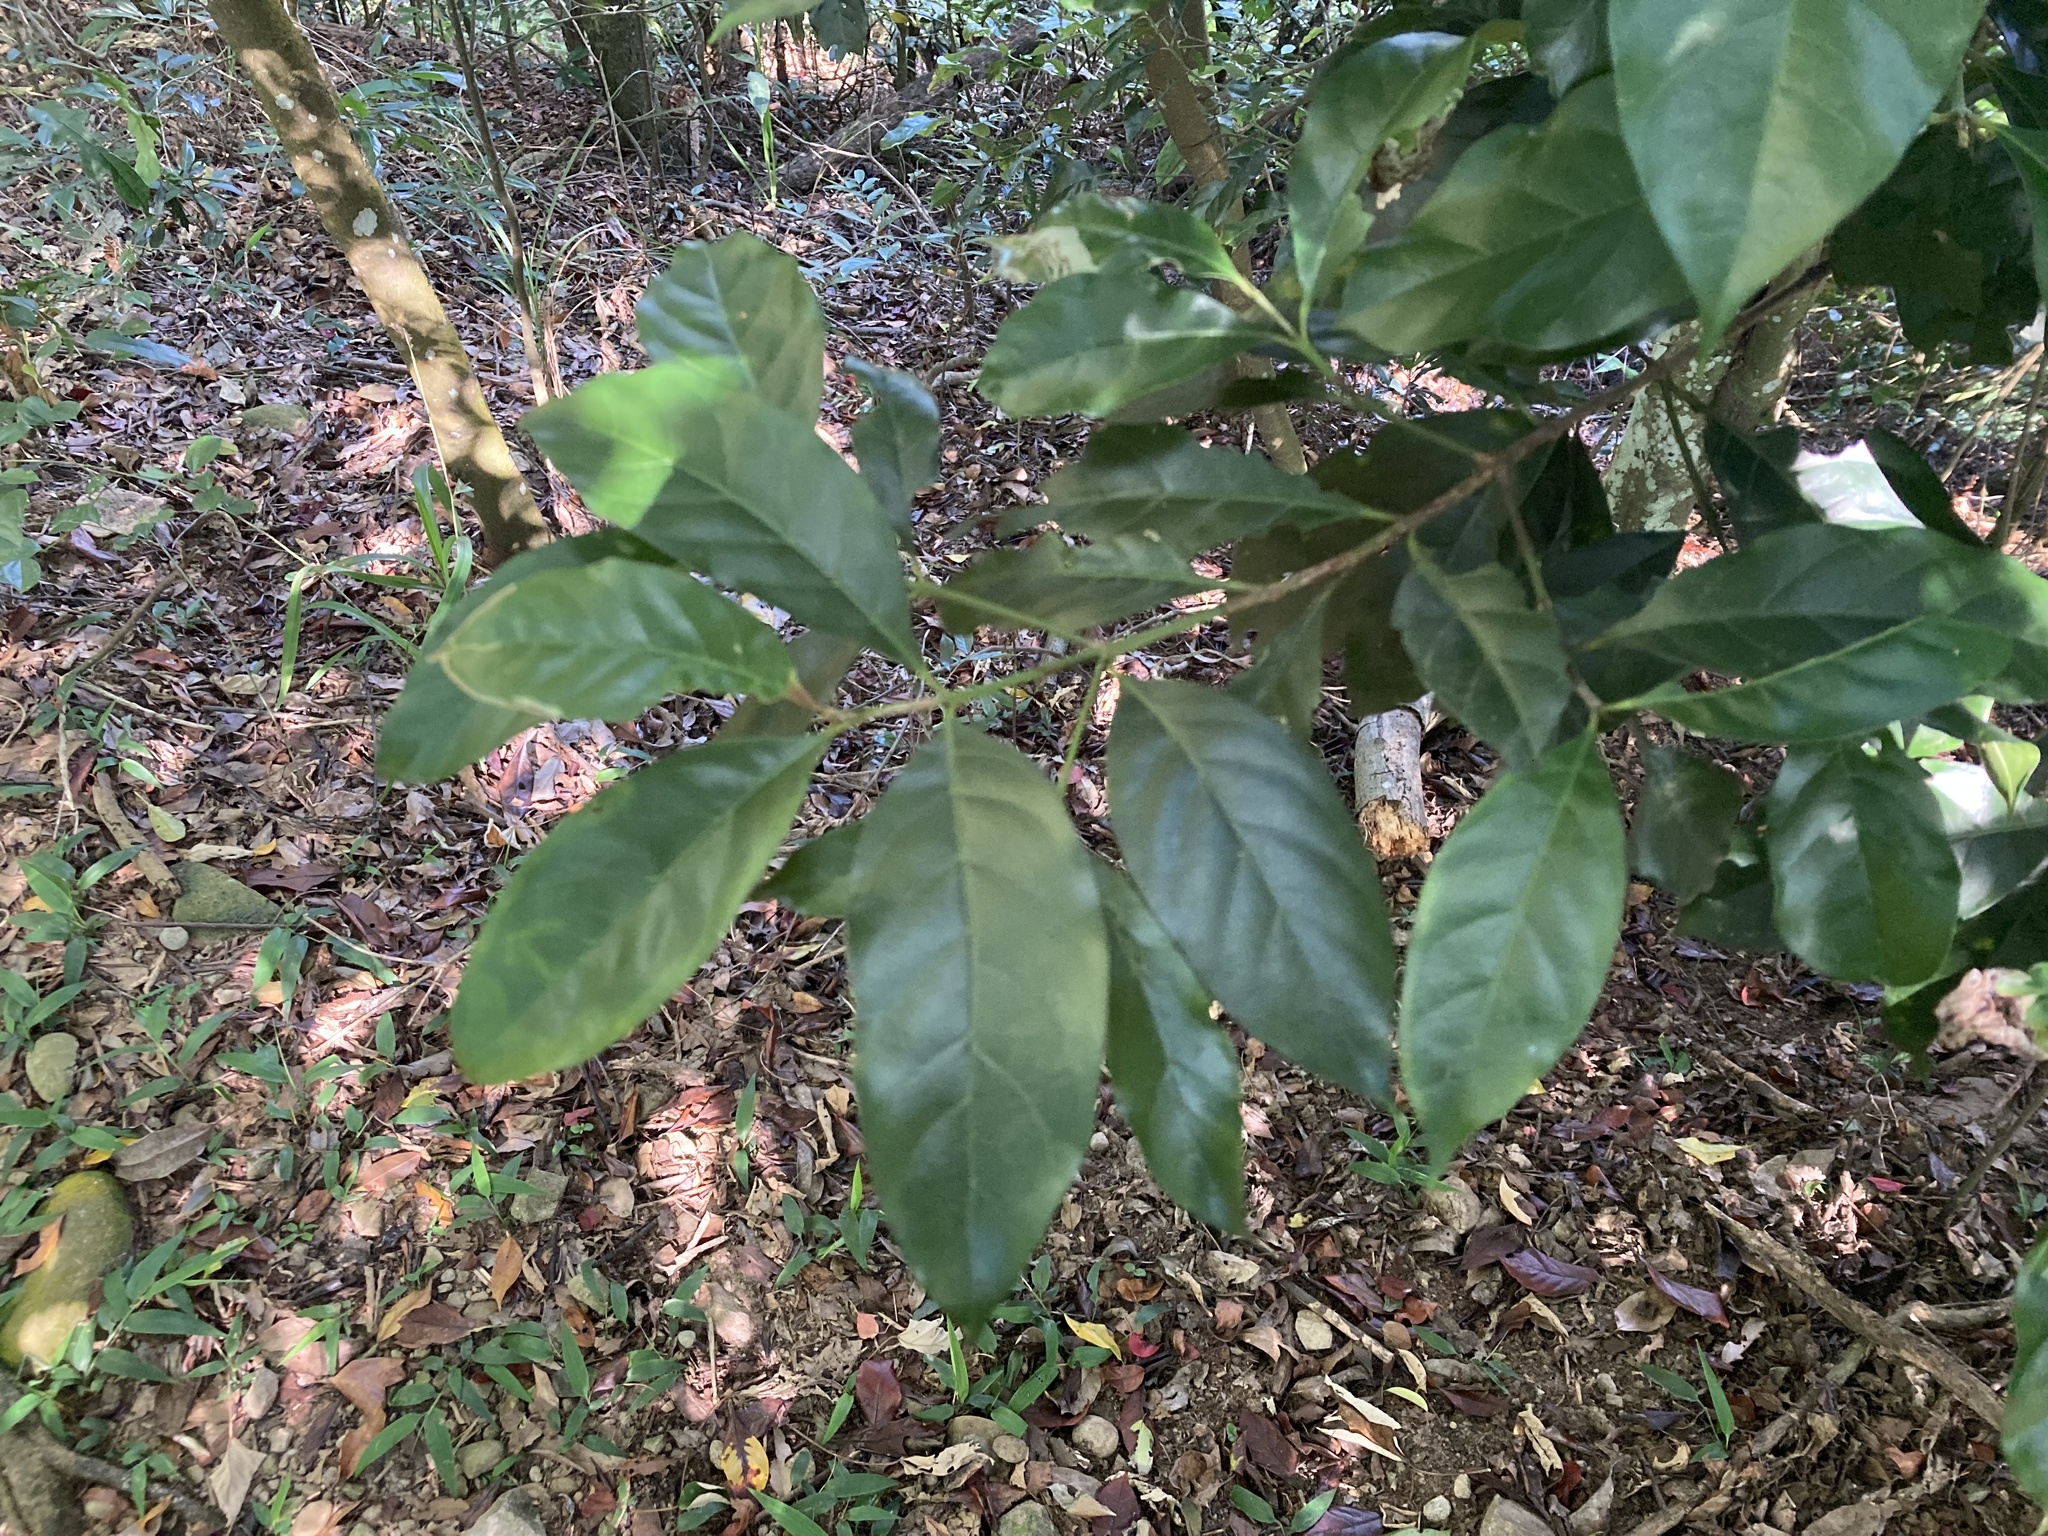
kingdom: Plantae
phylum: Tracheophyta
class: Magnoliopsida
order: Gentianales
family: Rubiaceae
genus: Diplospora
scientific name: Diplospora dubia
